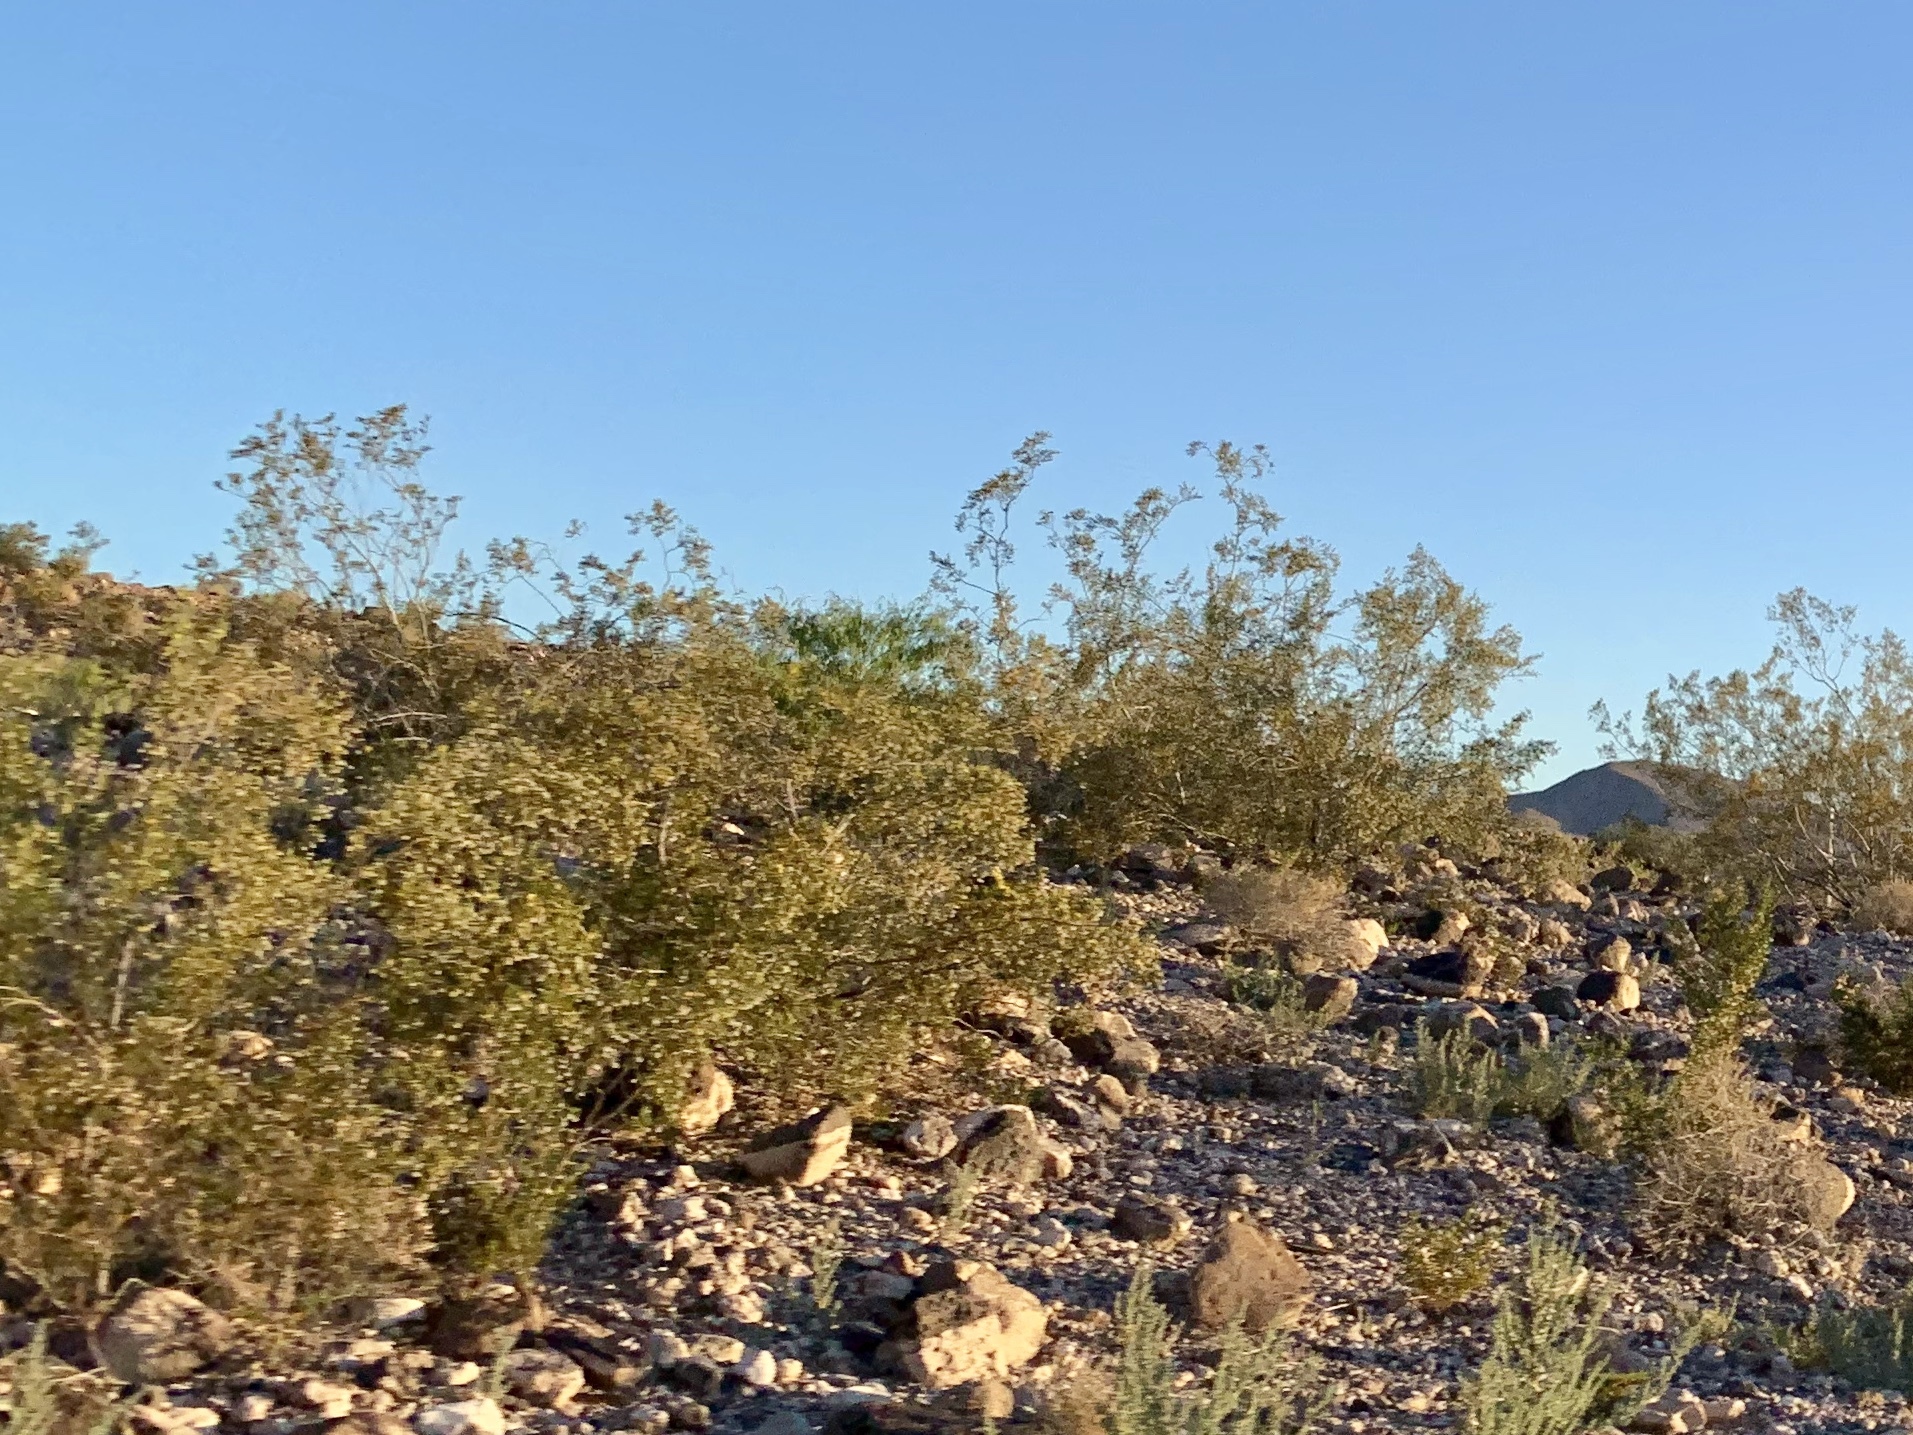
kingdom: Plantae
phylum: Tracheophyta
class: Magnoliopsida
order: Zygophyllales
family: Zygophyllaceae
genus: Larrea
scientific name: Larrea tridentata
